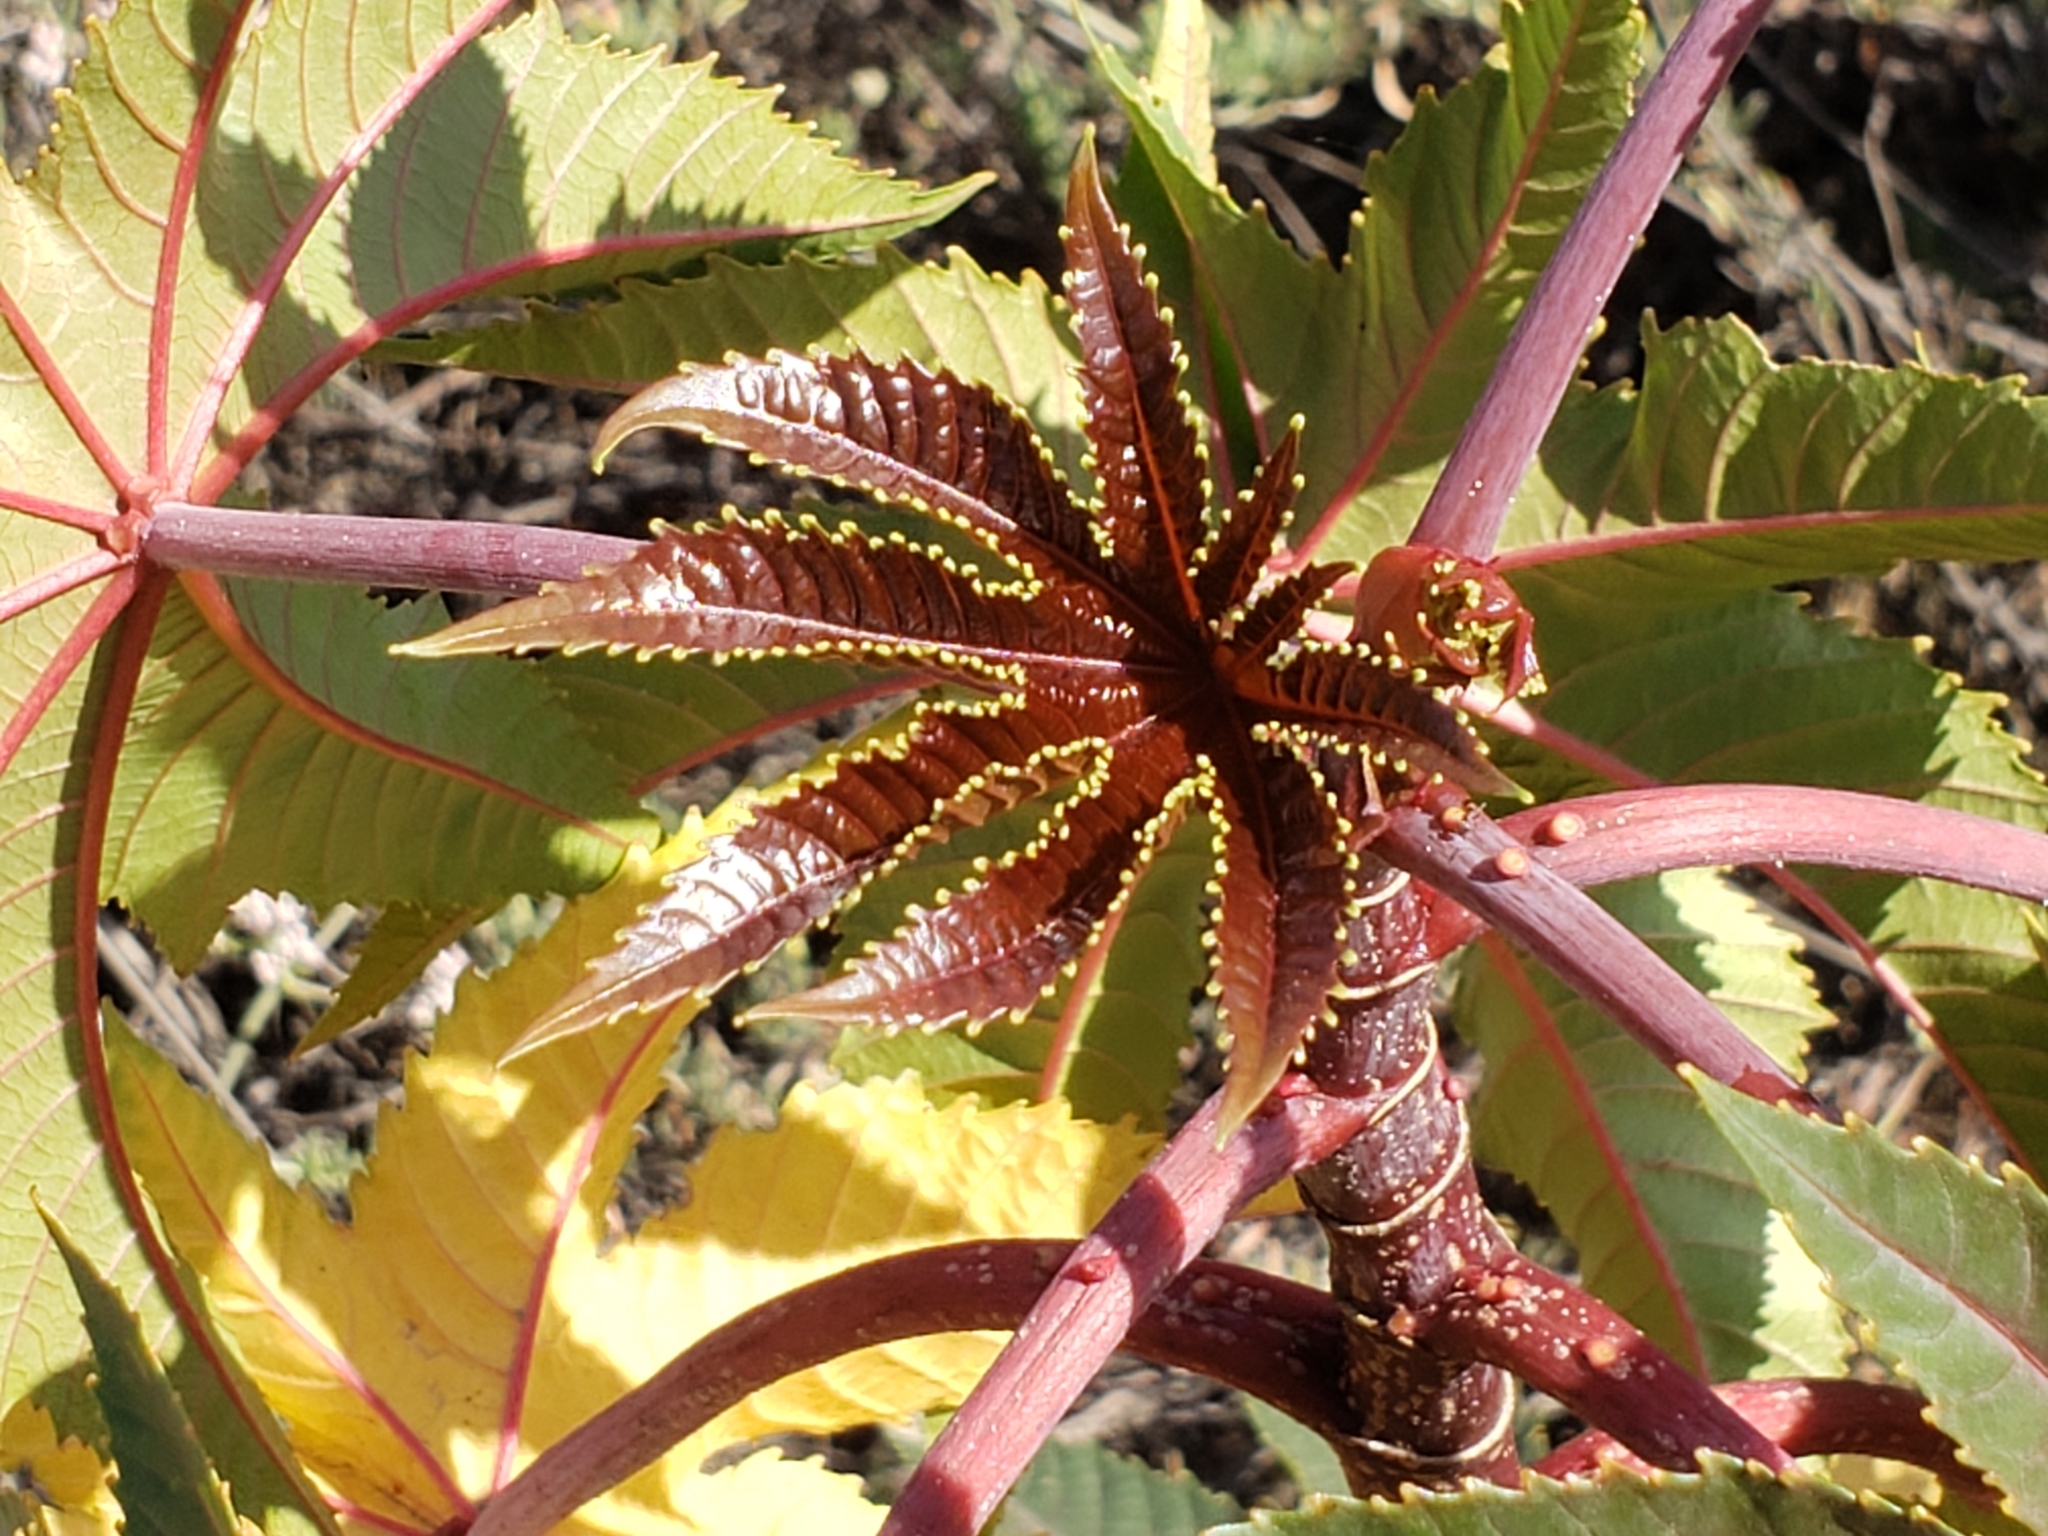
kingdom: Plantae
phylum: Tracheophyta
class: Magnoliopsida
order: Malpighiales
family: Euphorbiaceae
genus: Ricinus
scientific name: Ricinus communis
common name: Castor-oil-plant
